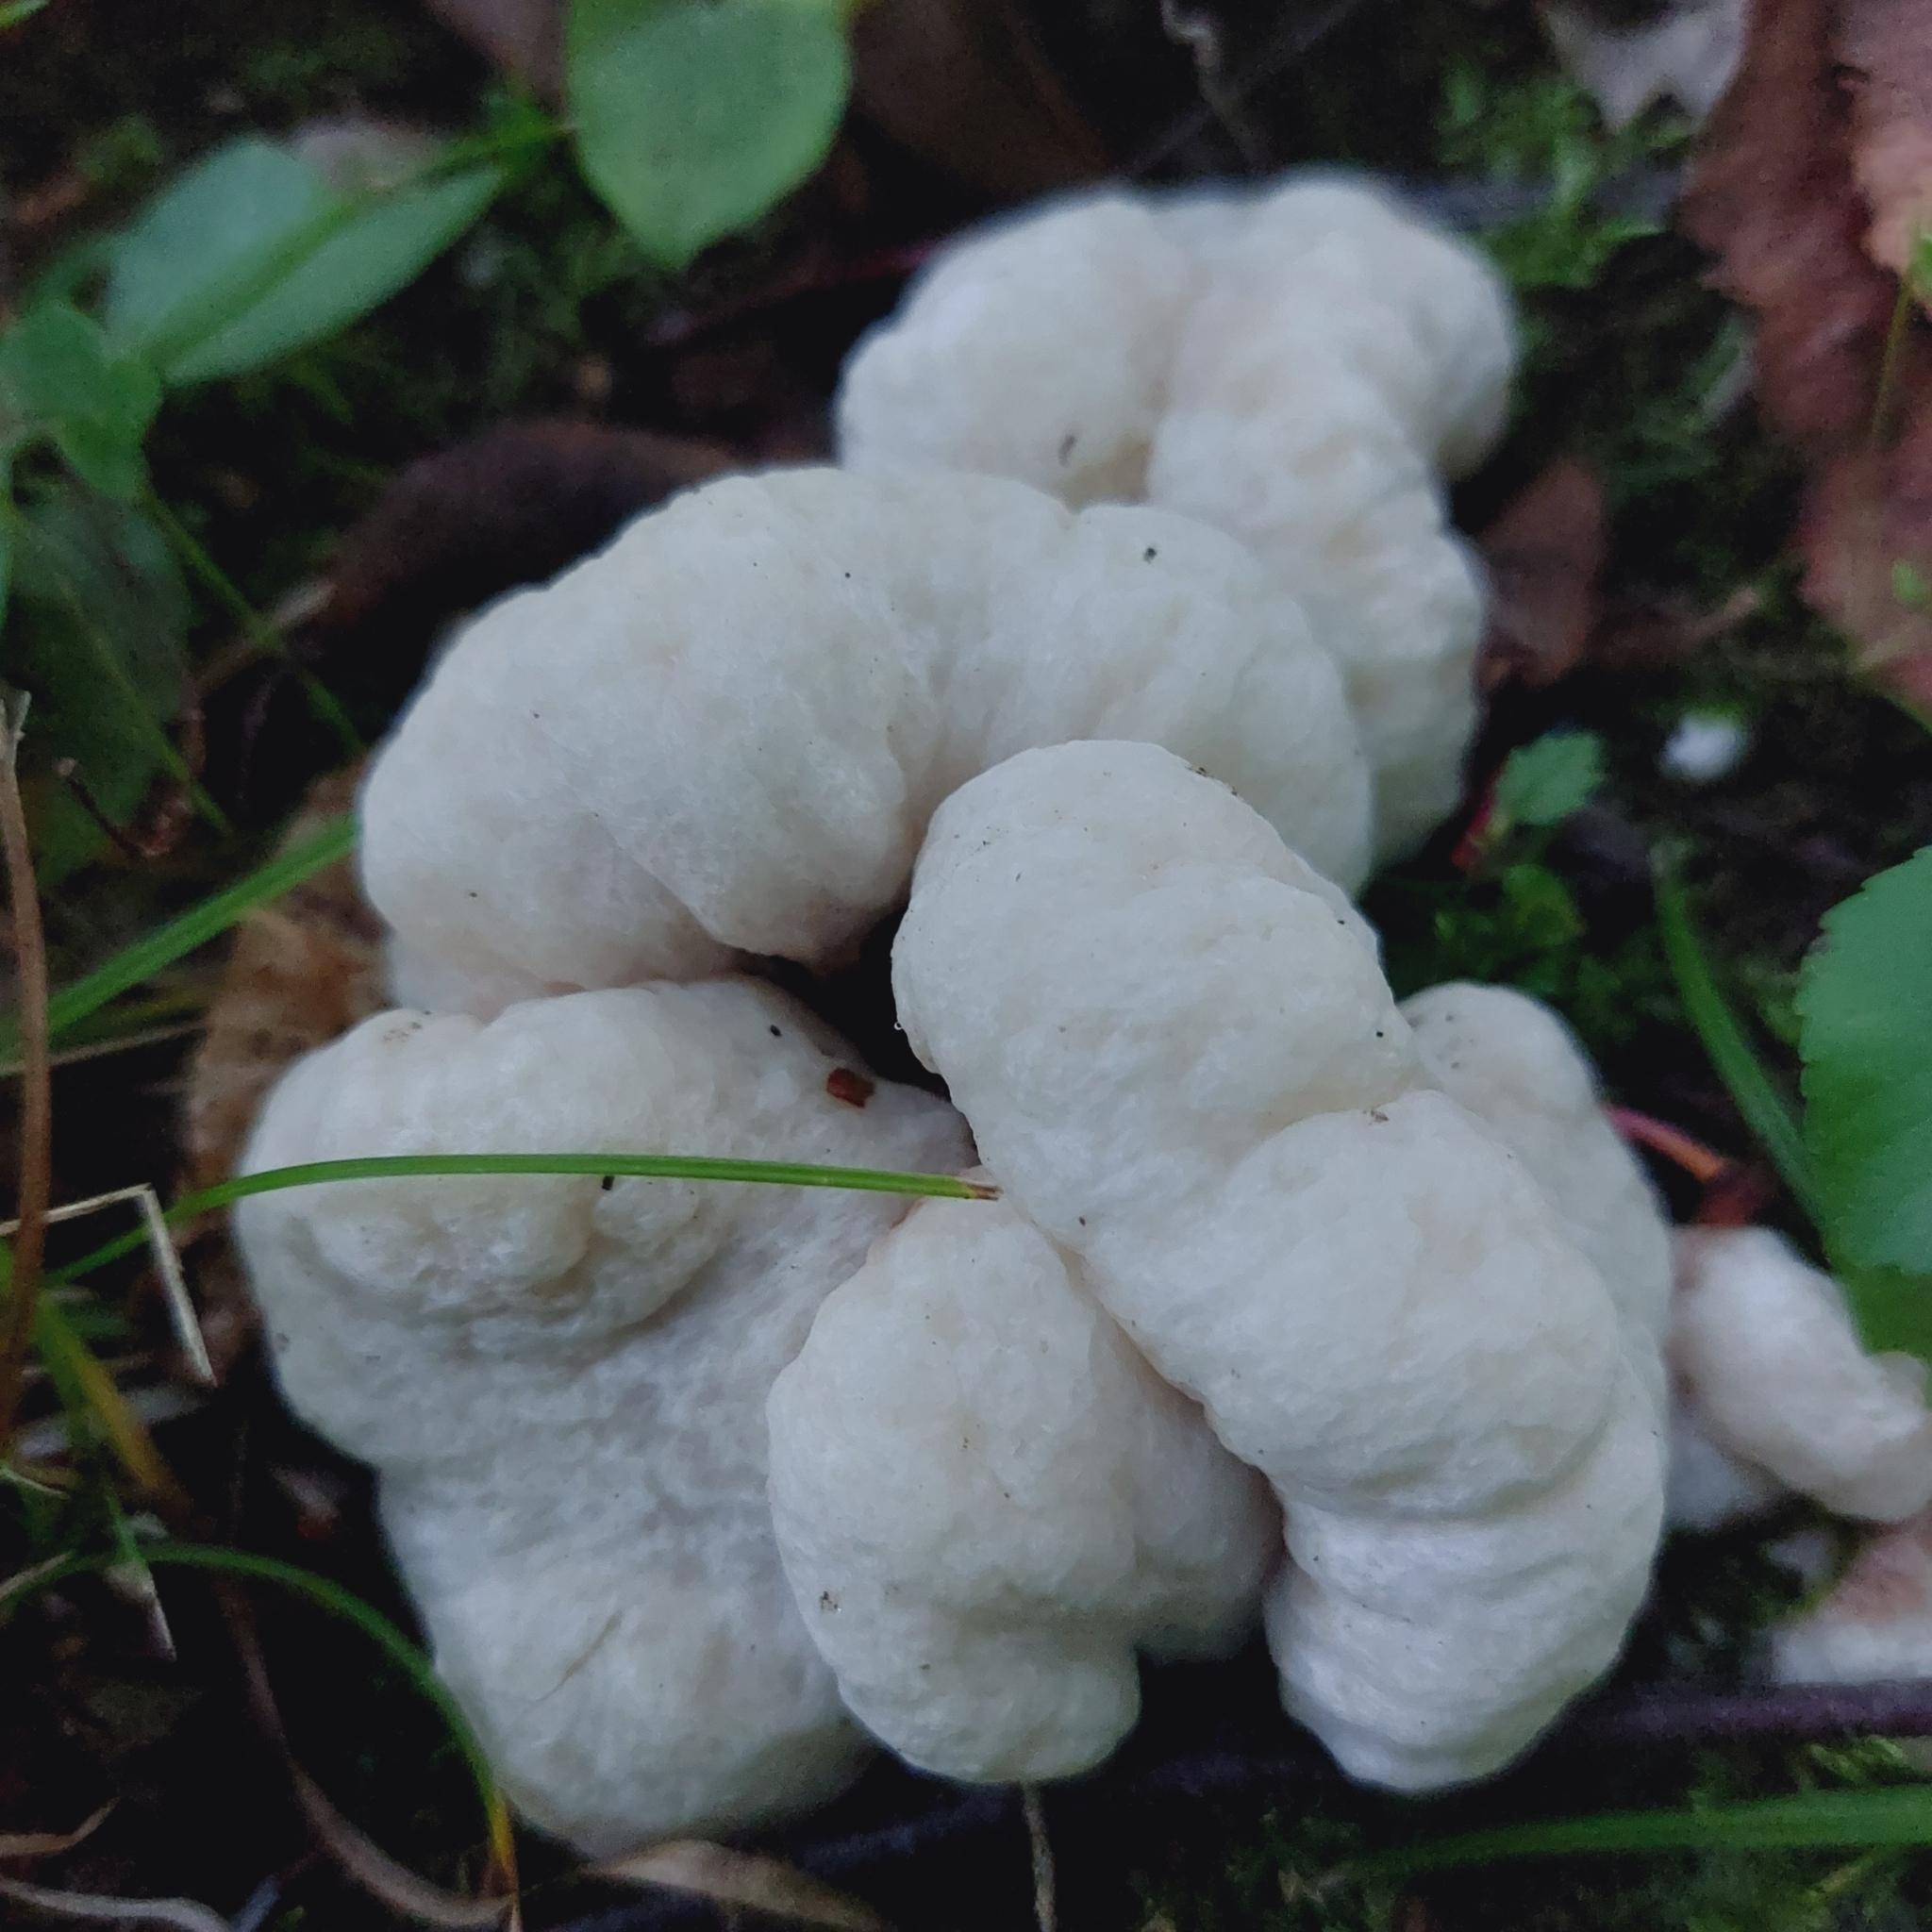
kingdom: Fungi
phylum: Basidiomycota
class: Agaricomycetes
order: Agaricales
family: Entolomataceae
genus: Entoloma
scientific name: Entoloma abortivum
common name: Aborted entoloma
